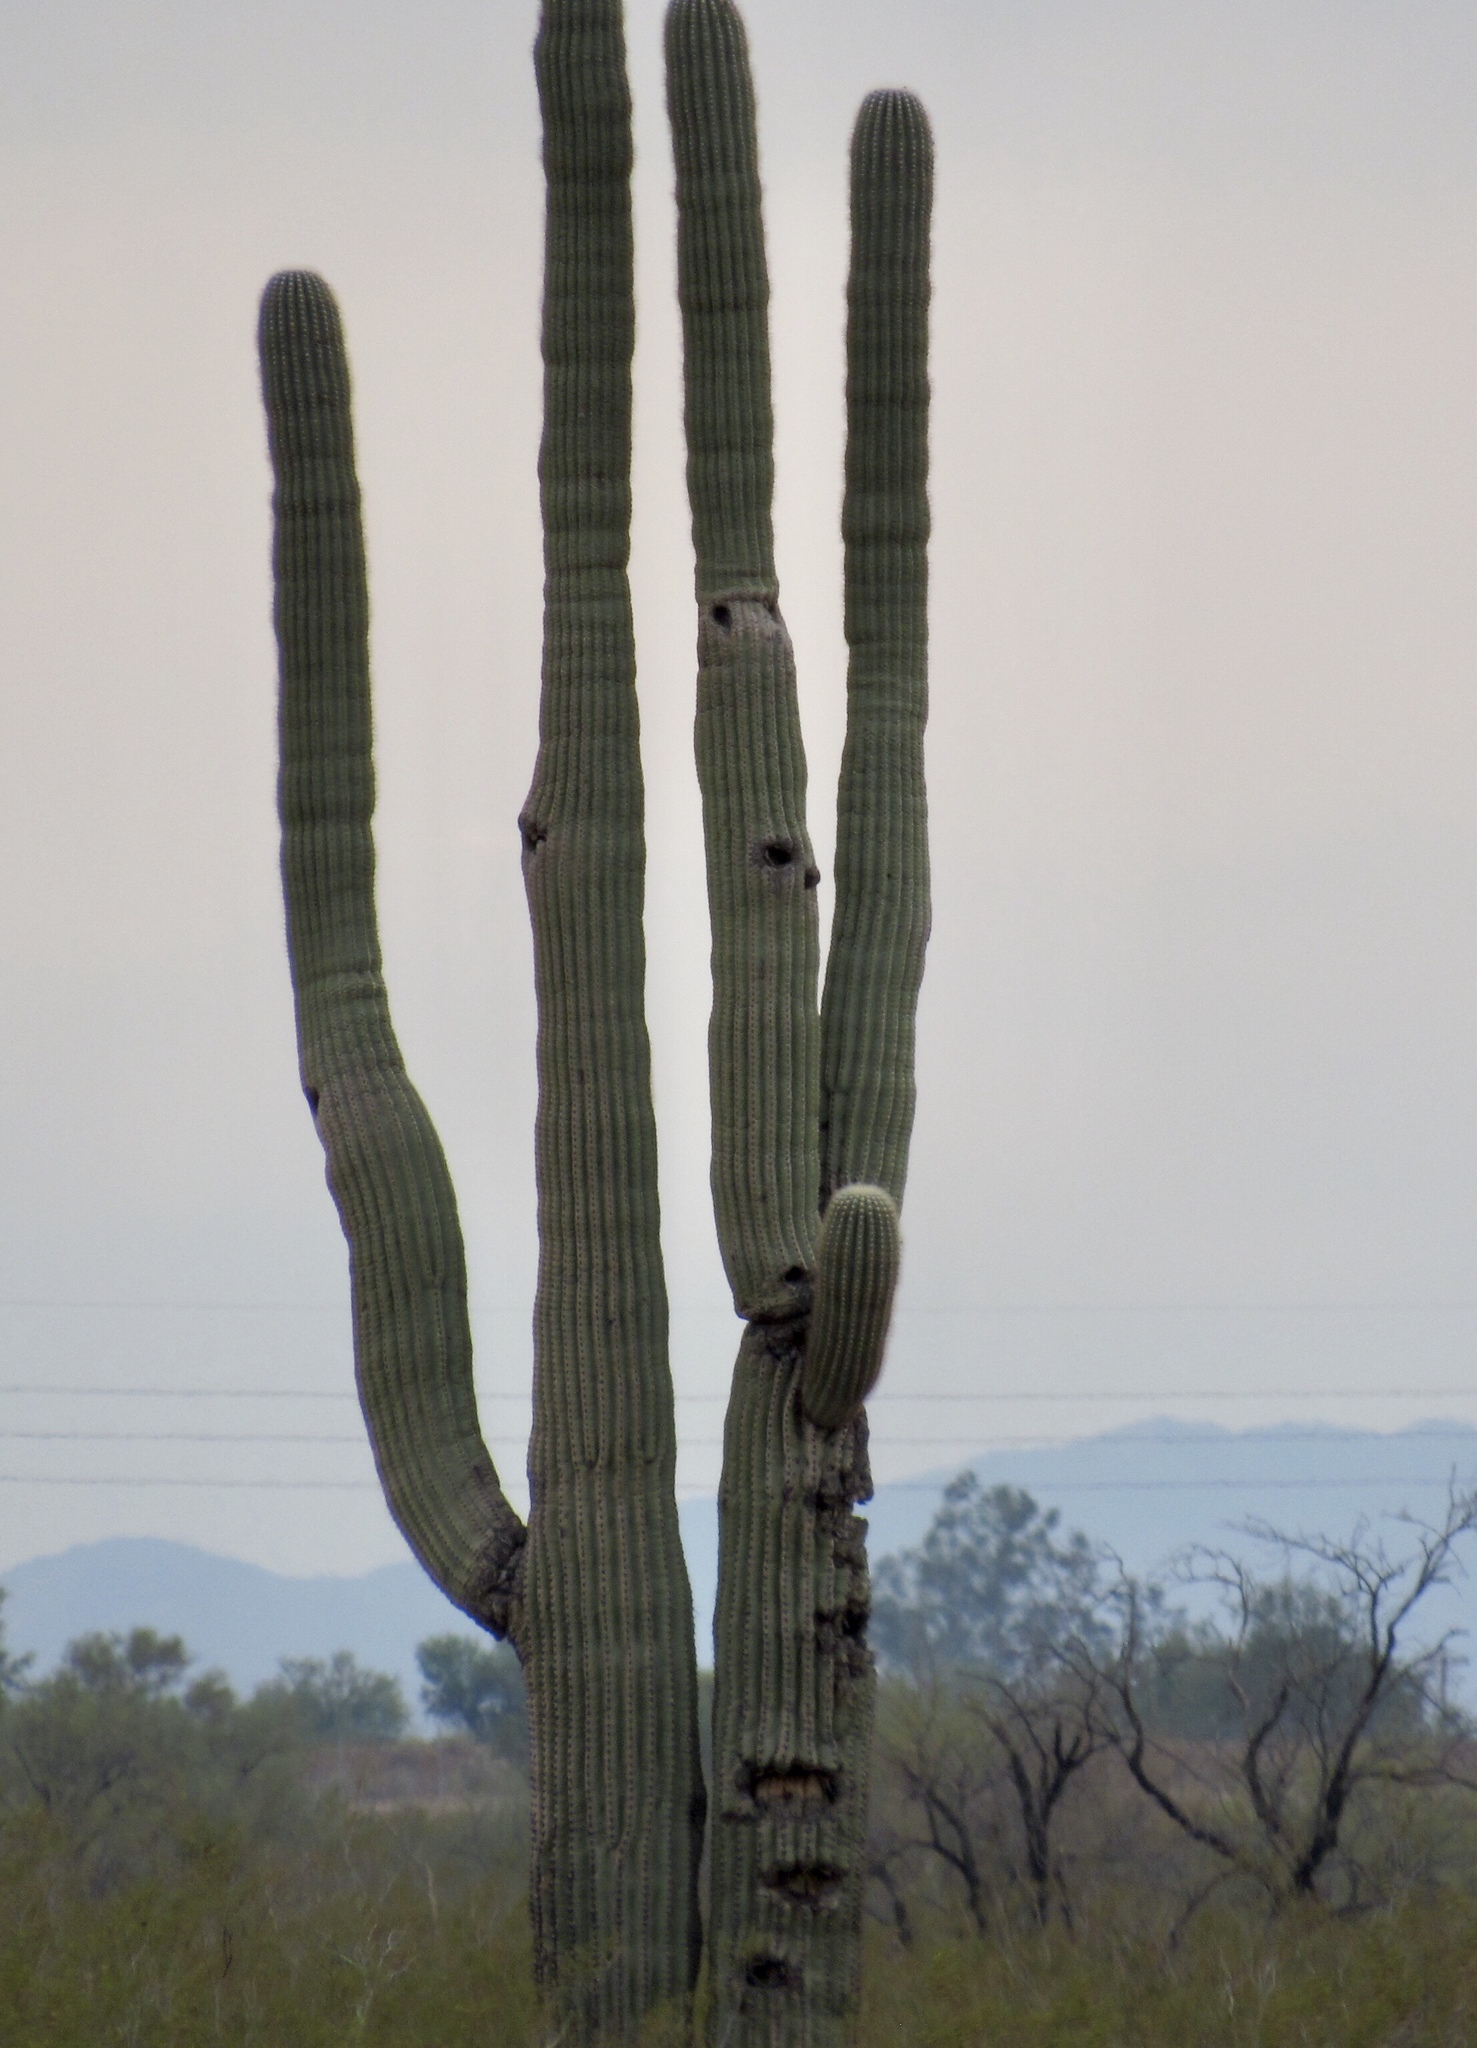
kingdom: Plantae
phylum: Tracheophyta
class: Magnoliopsida
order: Caryophyllales
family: Cactaceae
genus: Carnegiea
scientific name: Carnegiea gigantea
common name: Saguaro
